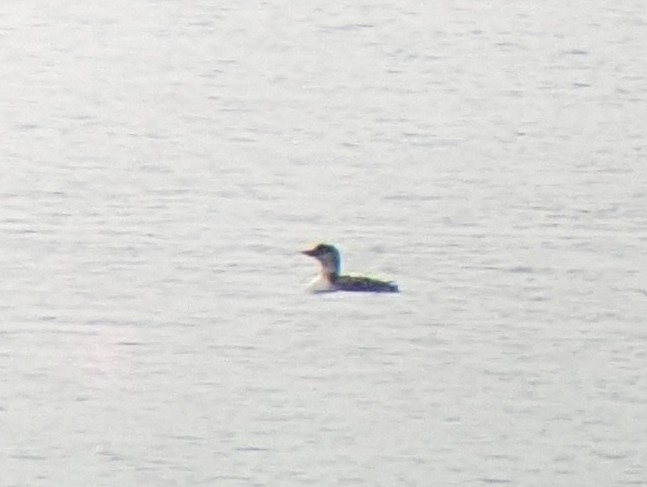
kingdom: Animalia
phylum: Chordata
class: Aves
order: Gaviiformes
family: Gaviidae
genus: Gavia
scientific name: Gavia immer
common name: Common loon
